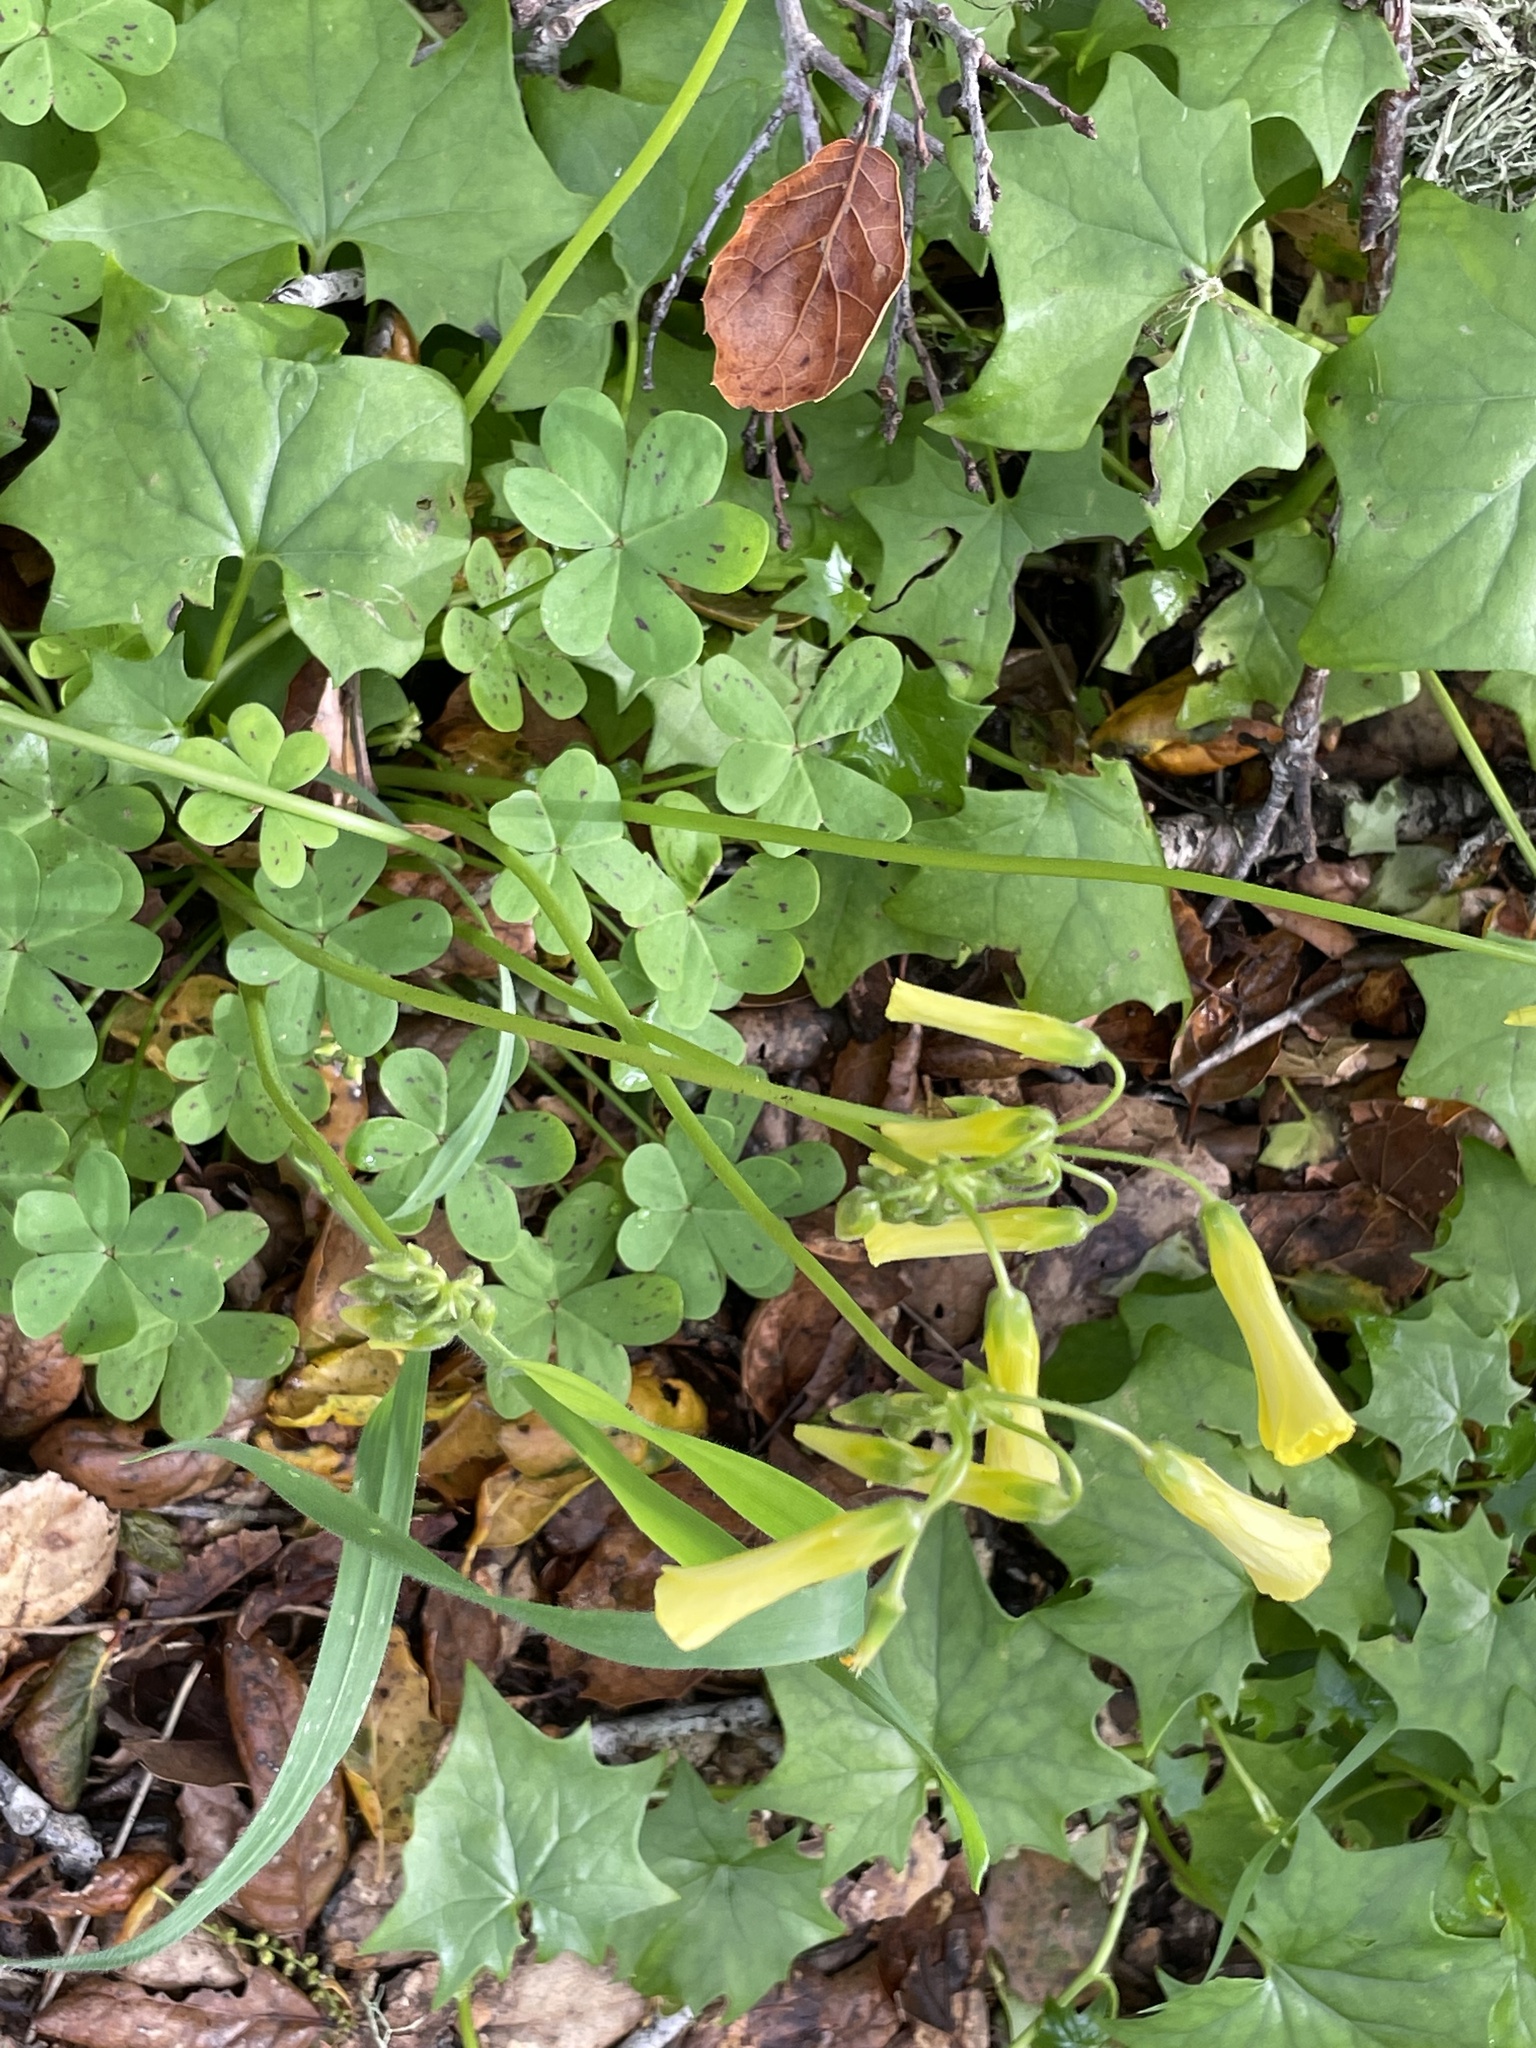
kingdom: Plantae
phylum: Tracheophyta
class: Magnoliopsida
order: Oxalidales
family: Oxalidaceae
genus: Oxalis
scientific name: Oxalis pes-caprae
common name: Bermuda-buttercup
